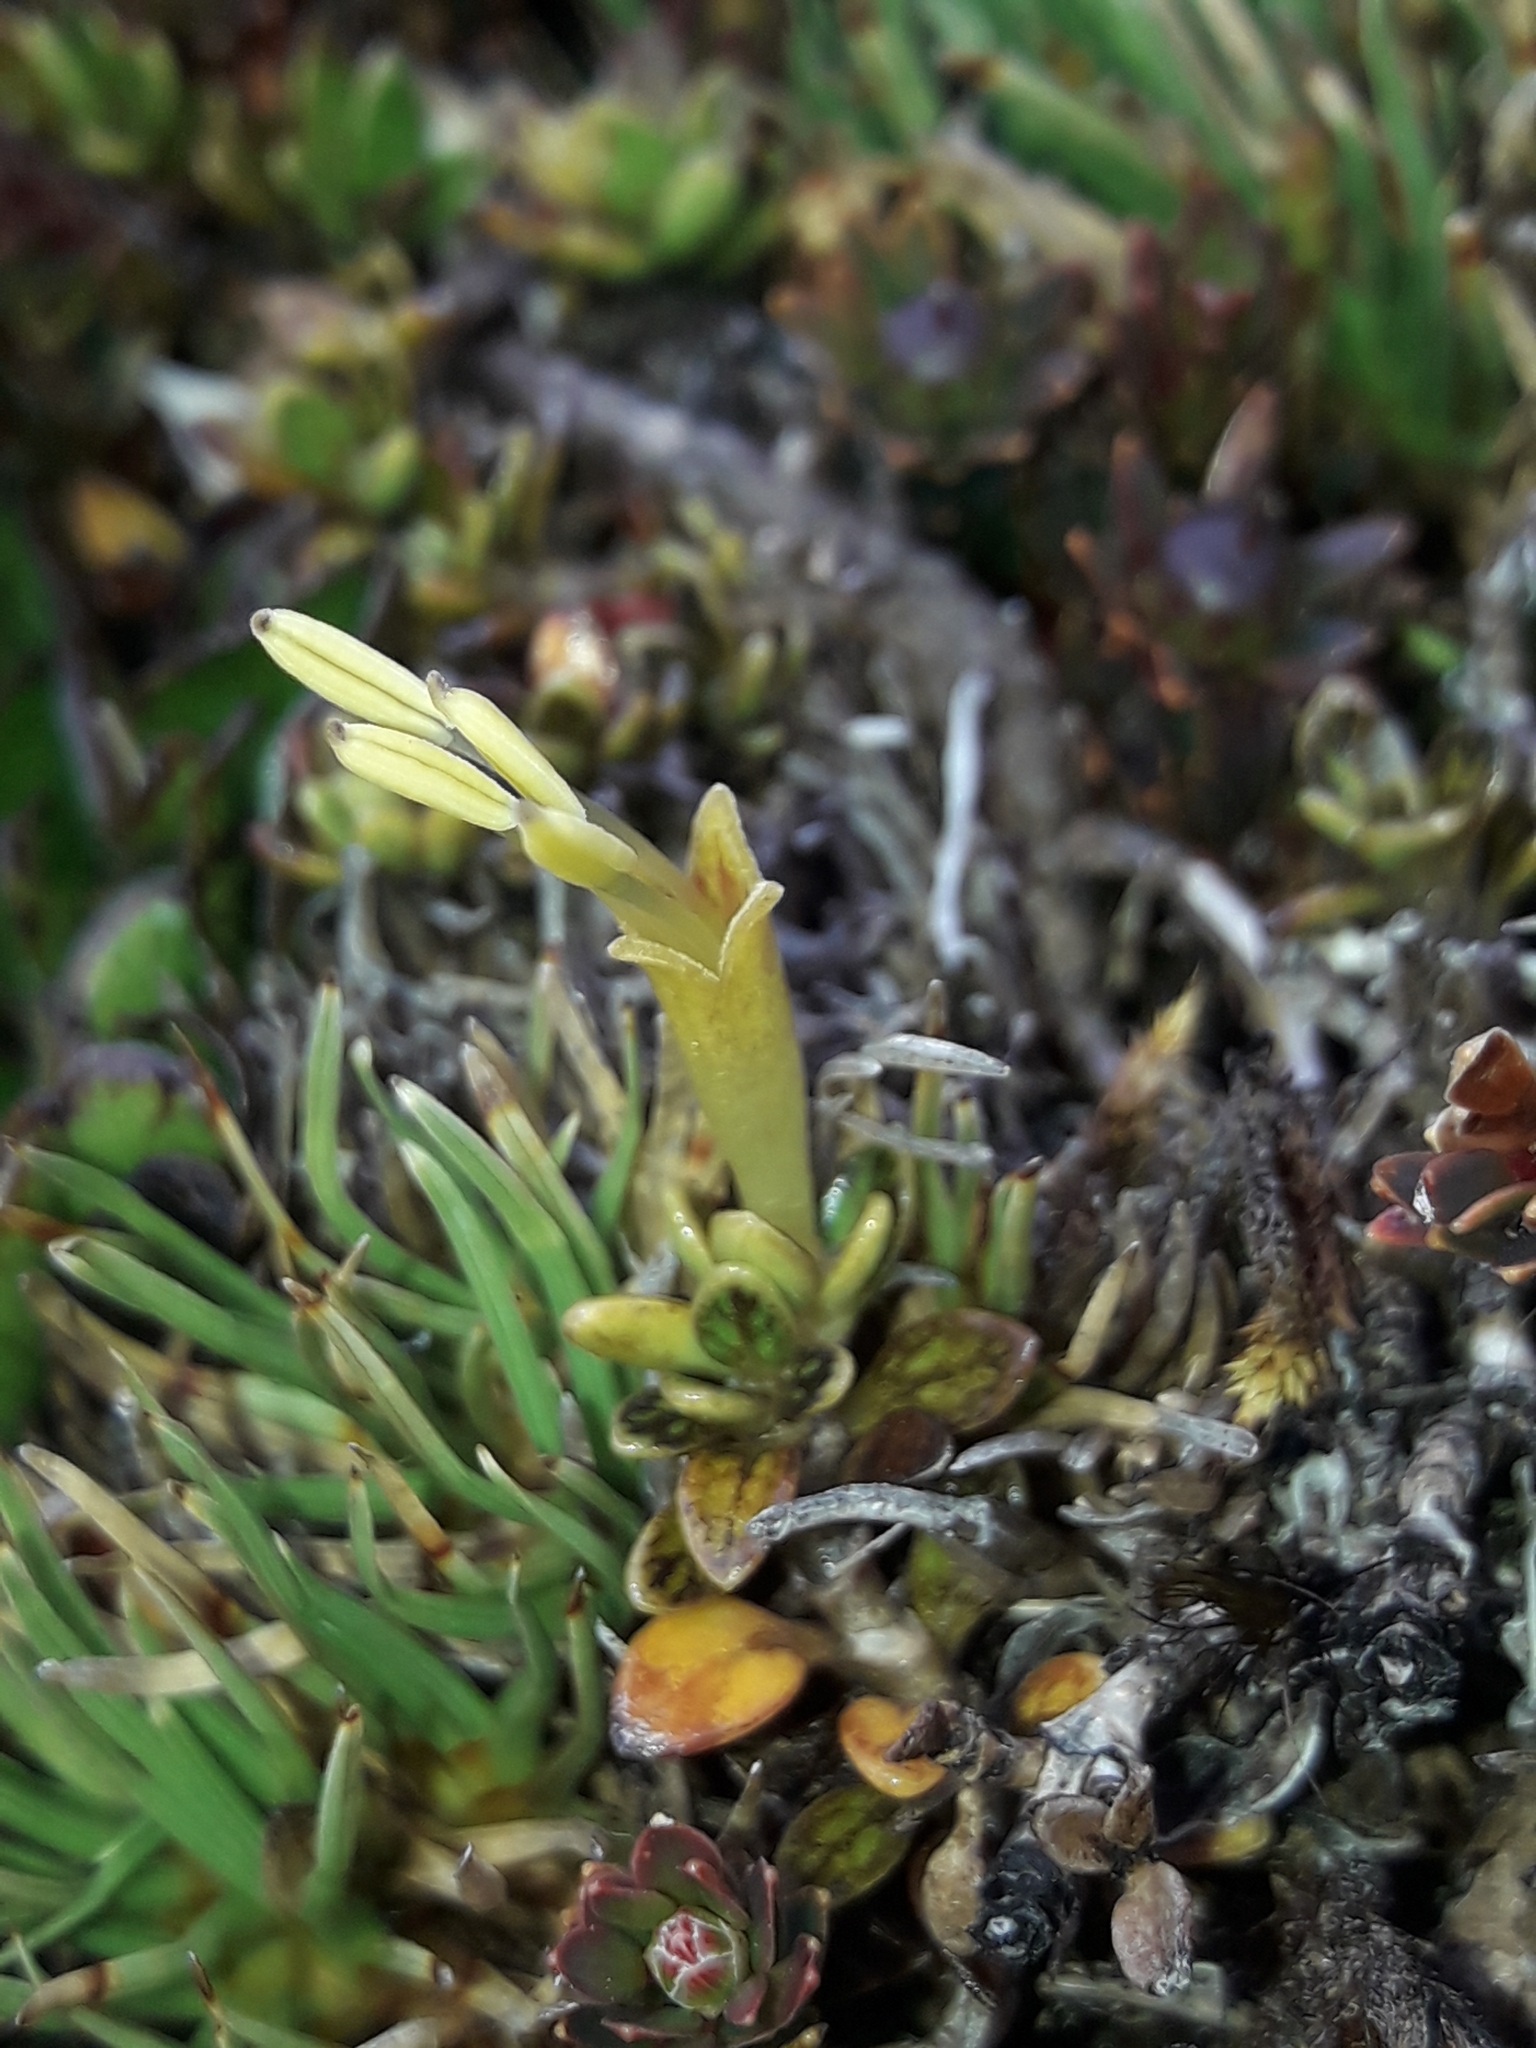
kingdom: Plantae
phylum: Tracheophyta
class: Magnoliopsida
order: Gentianales
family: Rubiaceae
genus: Coprosma
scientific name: Coprosma perpusilla
